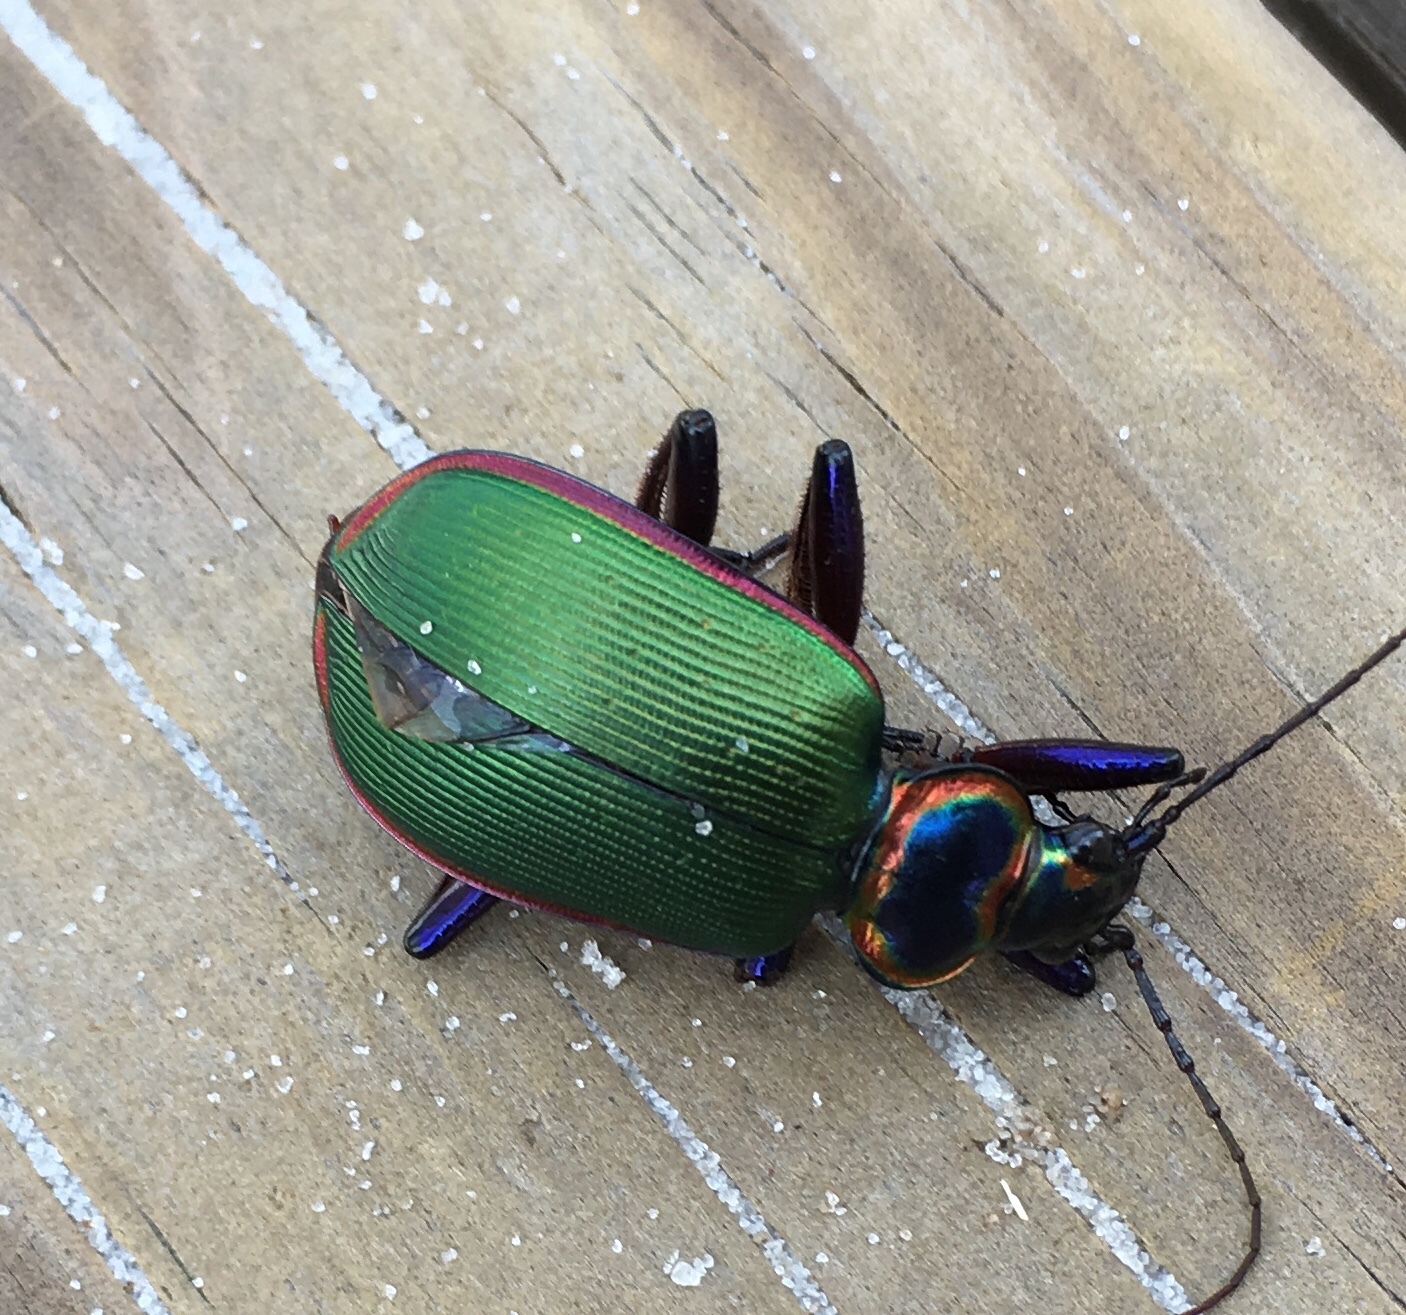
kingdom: Animalia
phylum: Arthropoda
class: Insecta
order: Coleoptera
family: Carabidae
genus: Calosoma
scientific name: Calosoma scrutator
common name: Fiery searcher beetle
